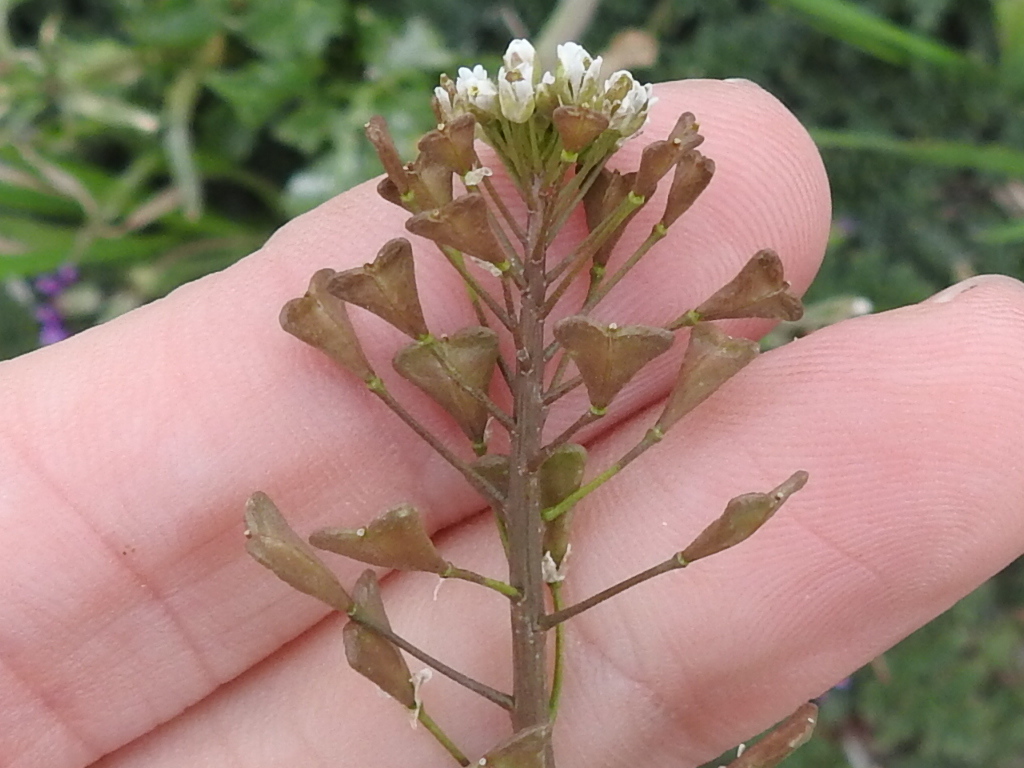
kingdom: Plantae
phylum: Tracheophyta
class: Magnoliopsida
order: Brassicales
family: Brassicaceae
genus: Capsella
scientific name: Capsella bursa-pastoris
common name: Shepherd's purse
